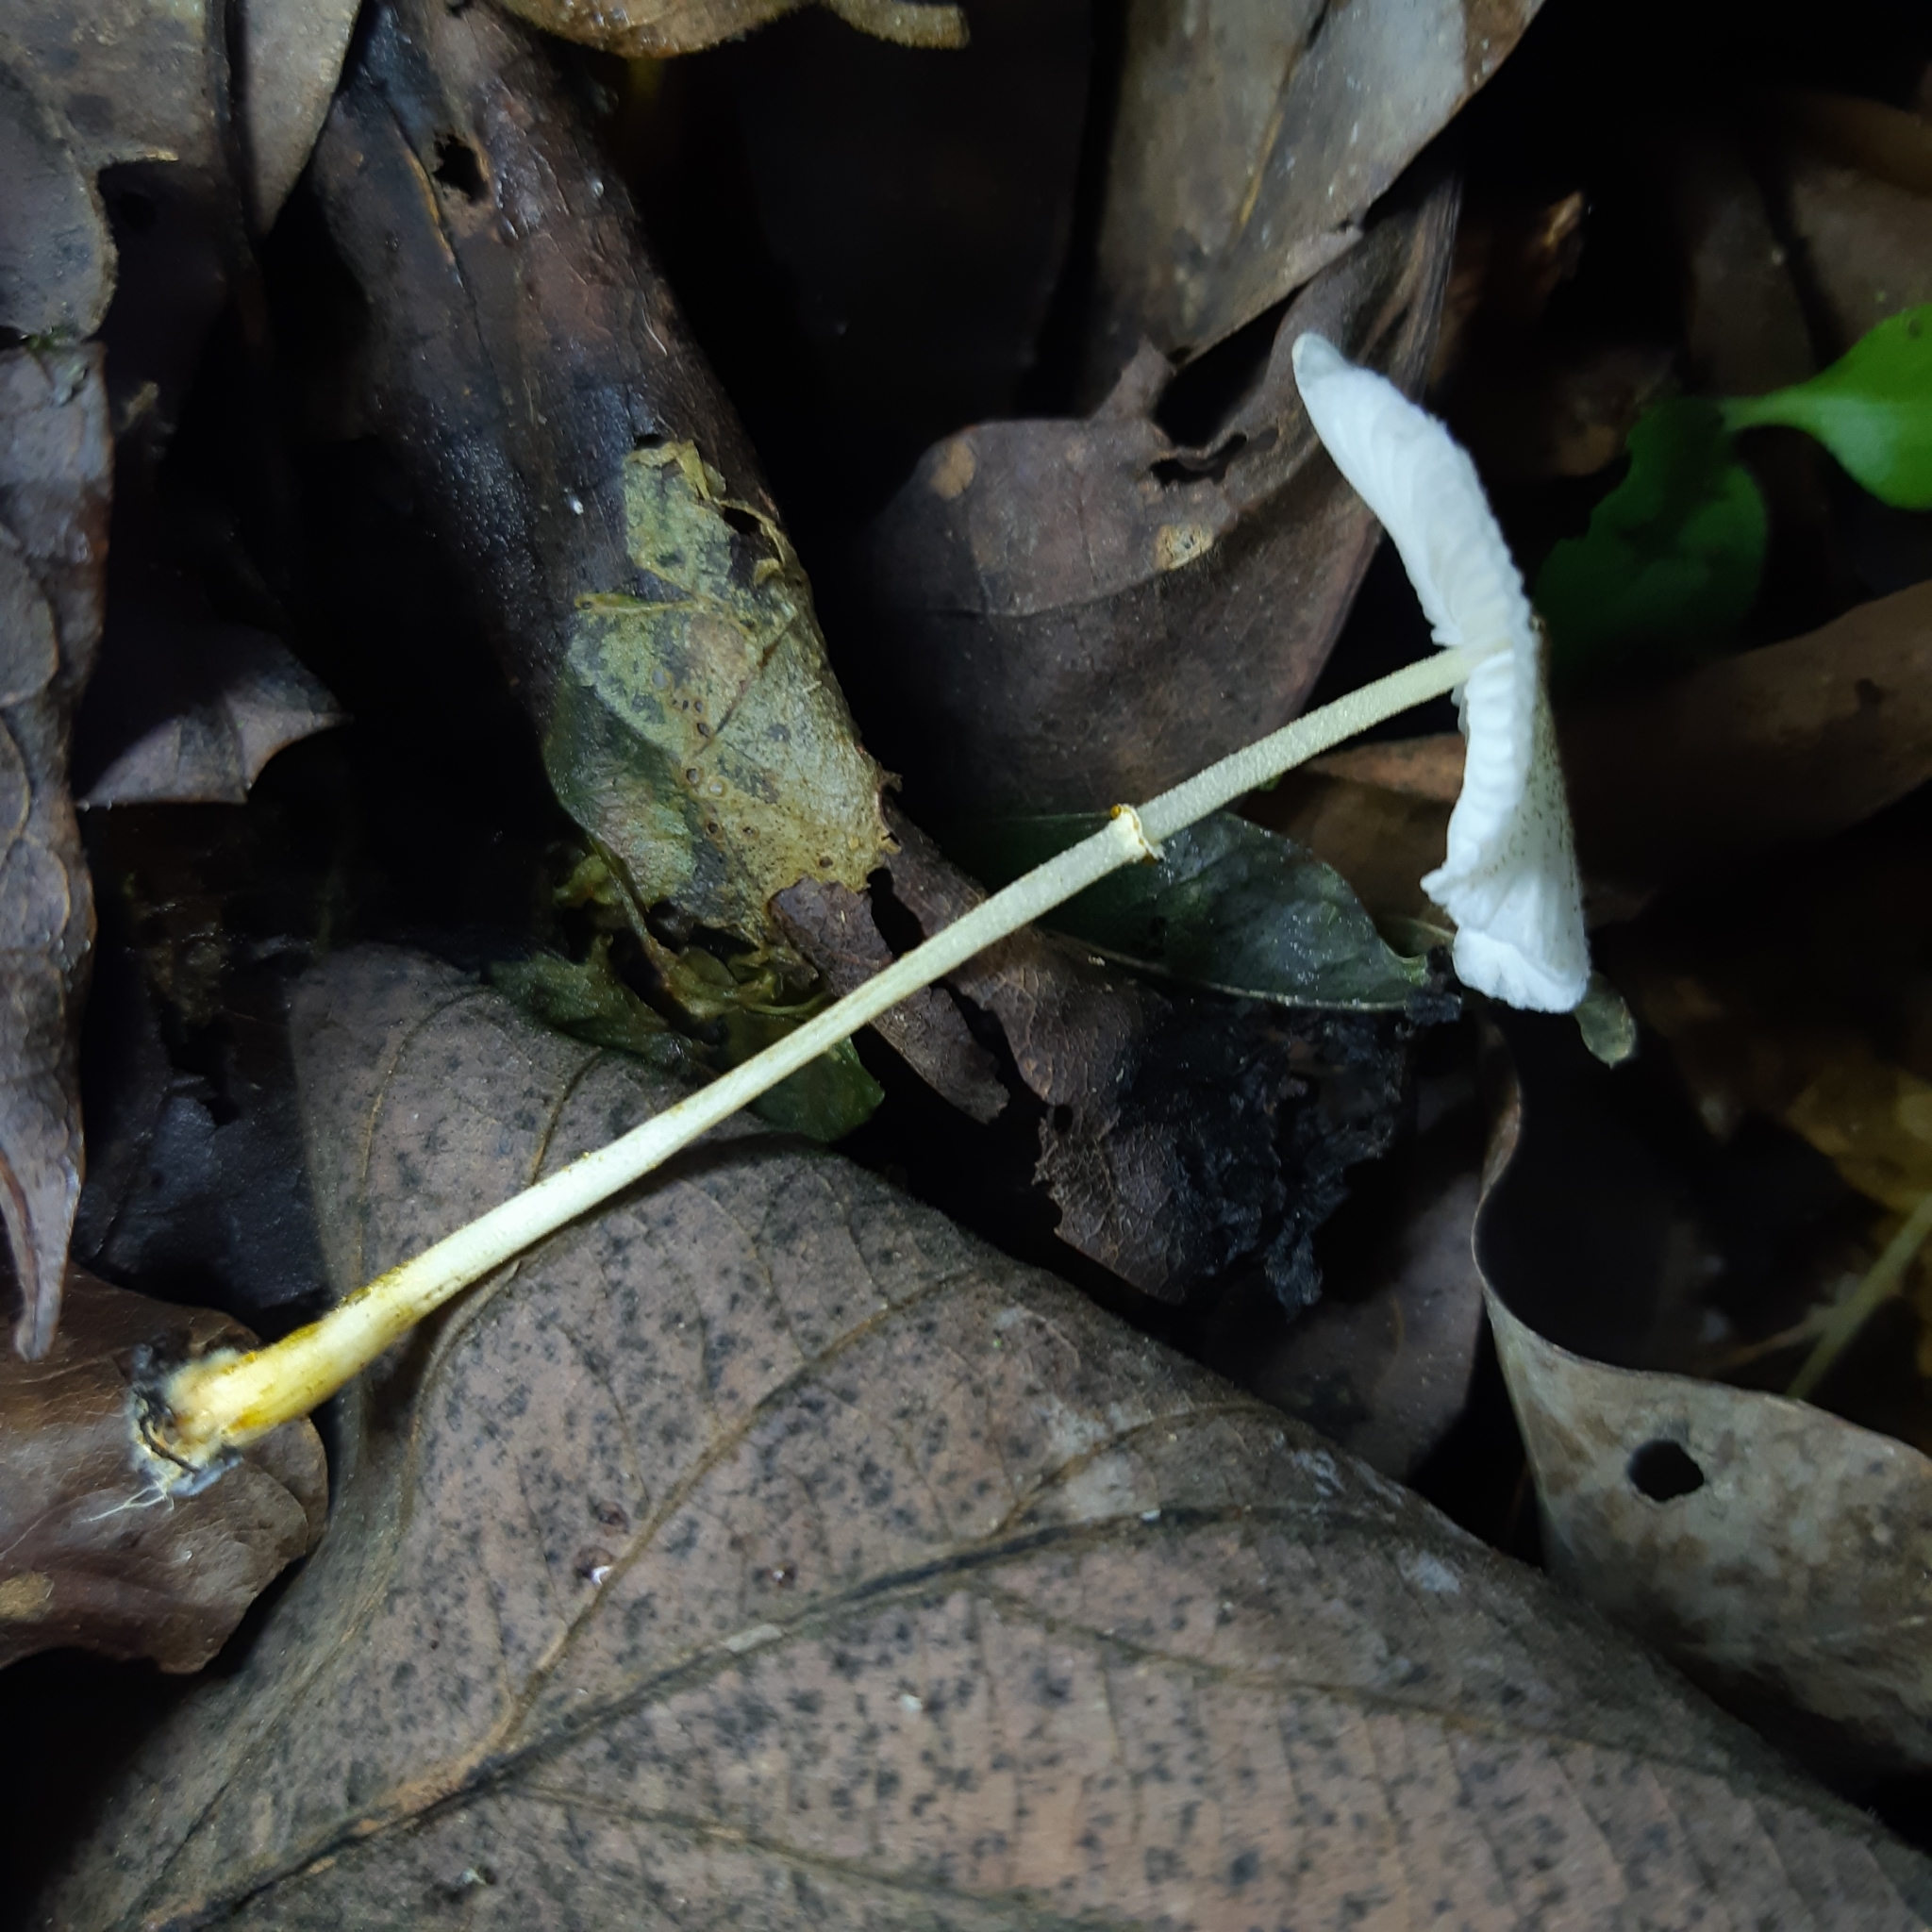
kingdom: Fungi
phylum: Basidiomycota
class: Agaricomycetes
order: Agaricales
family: Agaricaceae
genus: Leucocoprinus
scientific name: Leucocoprinus fragilissimus
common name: Fragile dapperling
